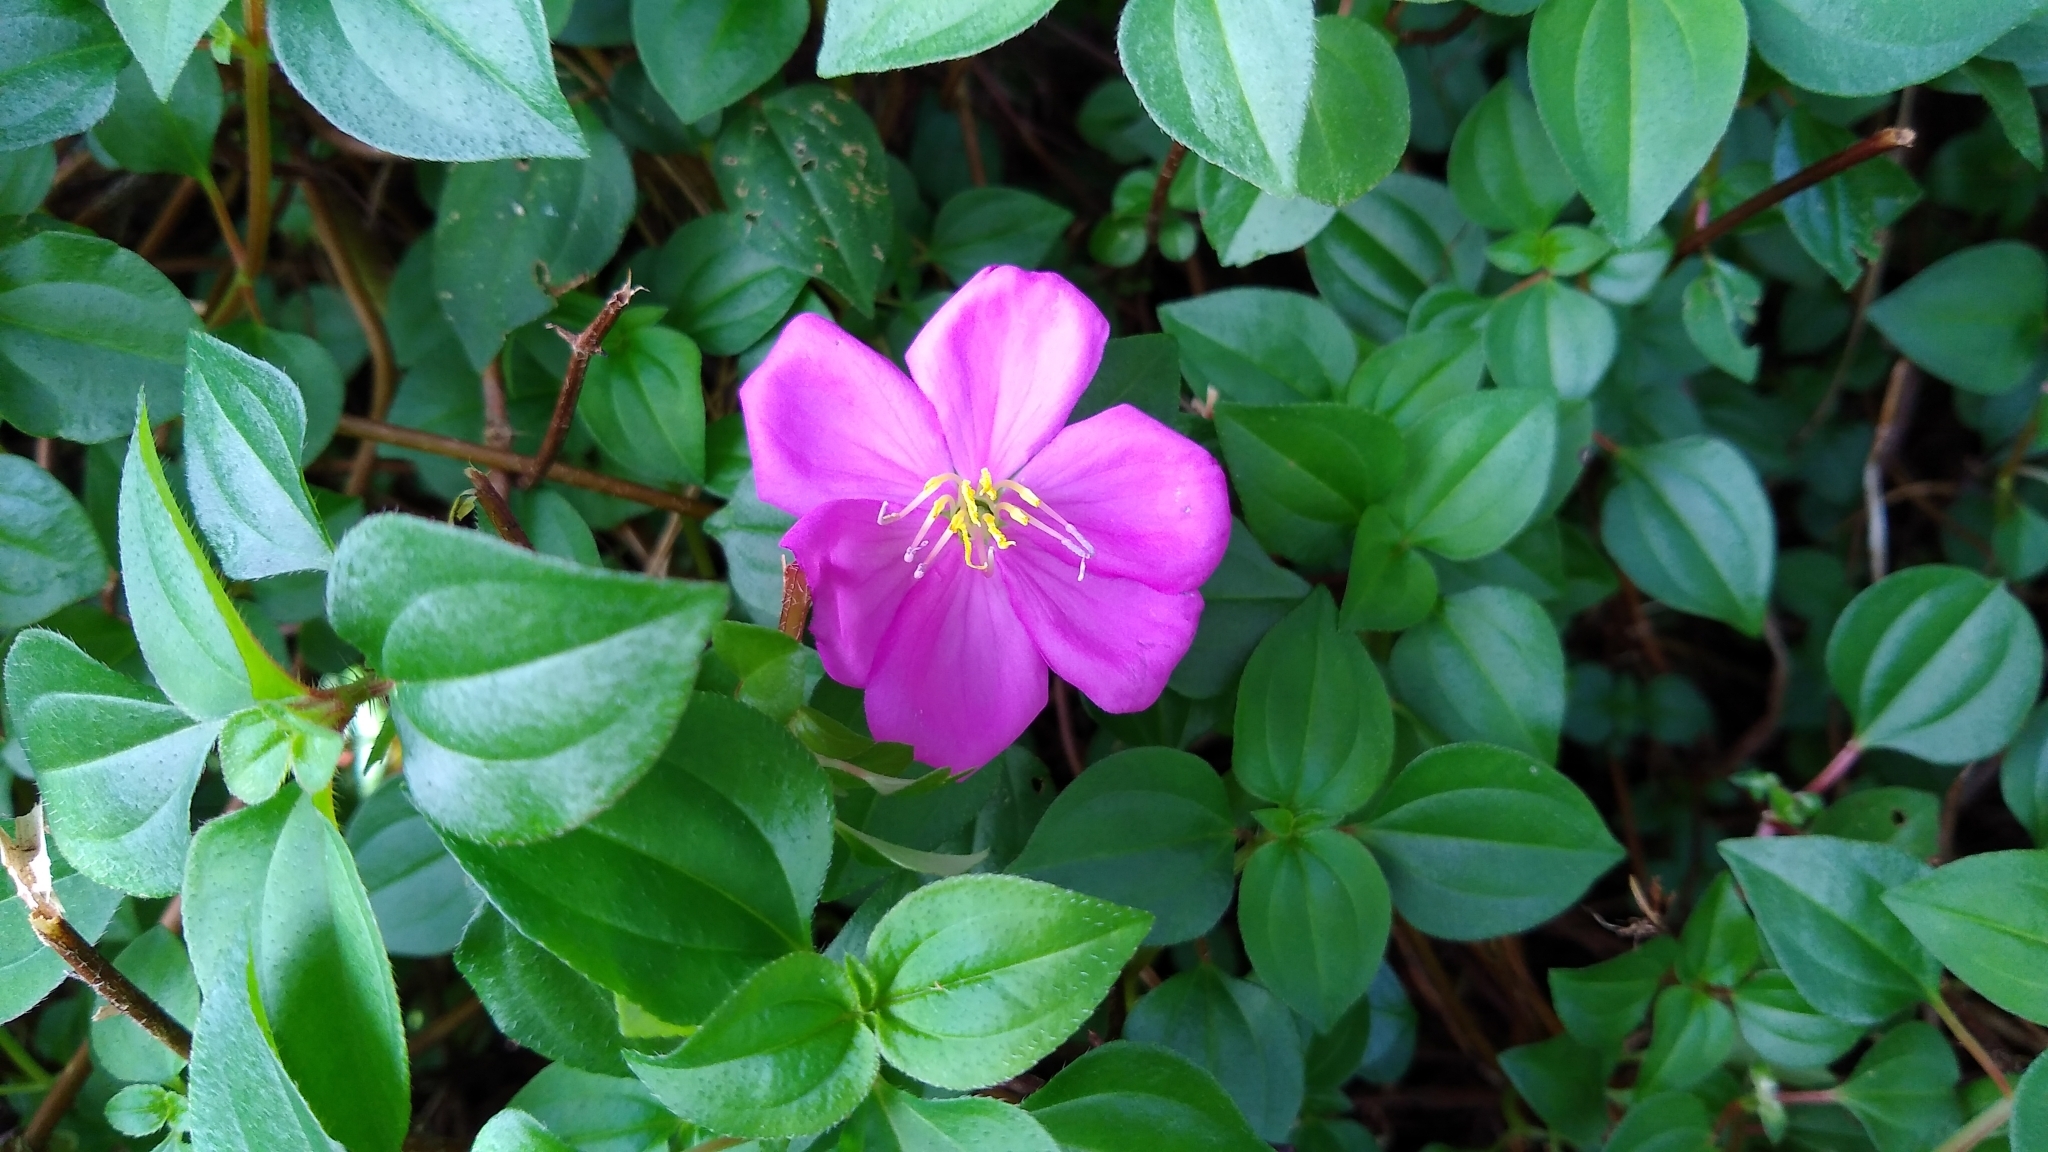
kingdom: Plantae
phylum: Tracheophyta
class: Magnoliopsida
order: Myrtales
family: Melastomataceae
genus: Heterotis
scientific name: Heterotis rotundifolia
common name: Pinklady
